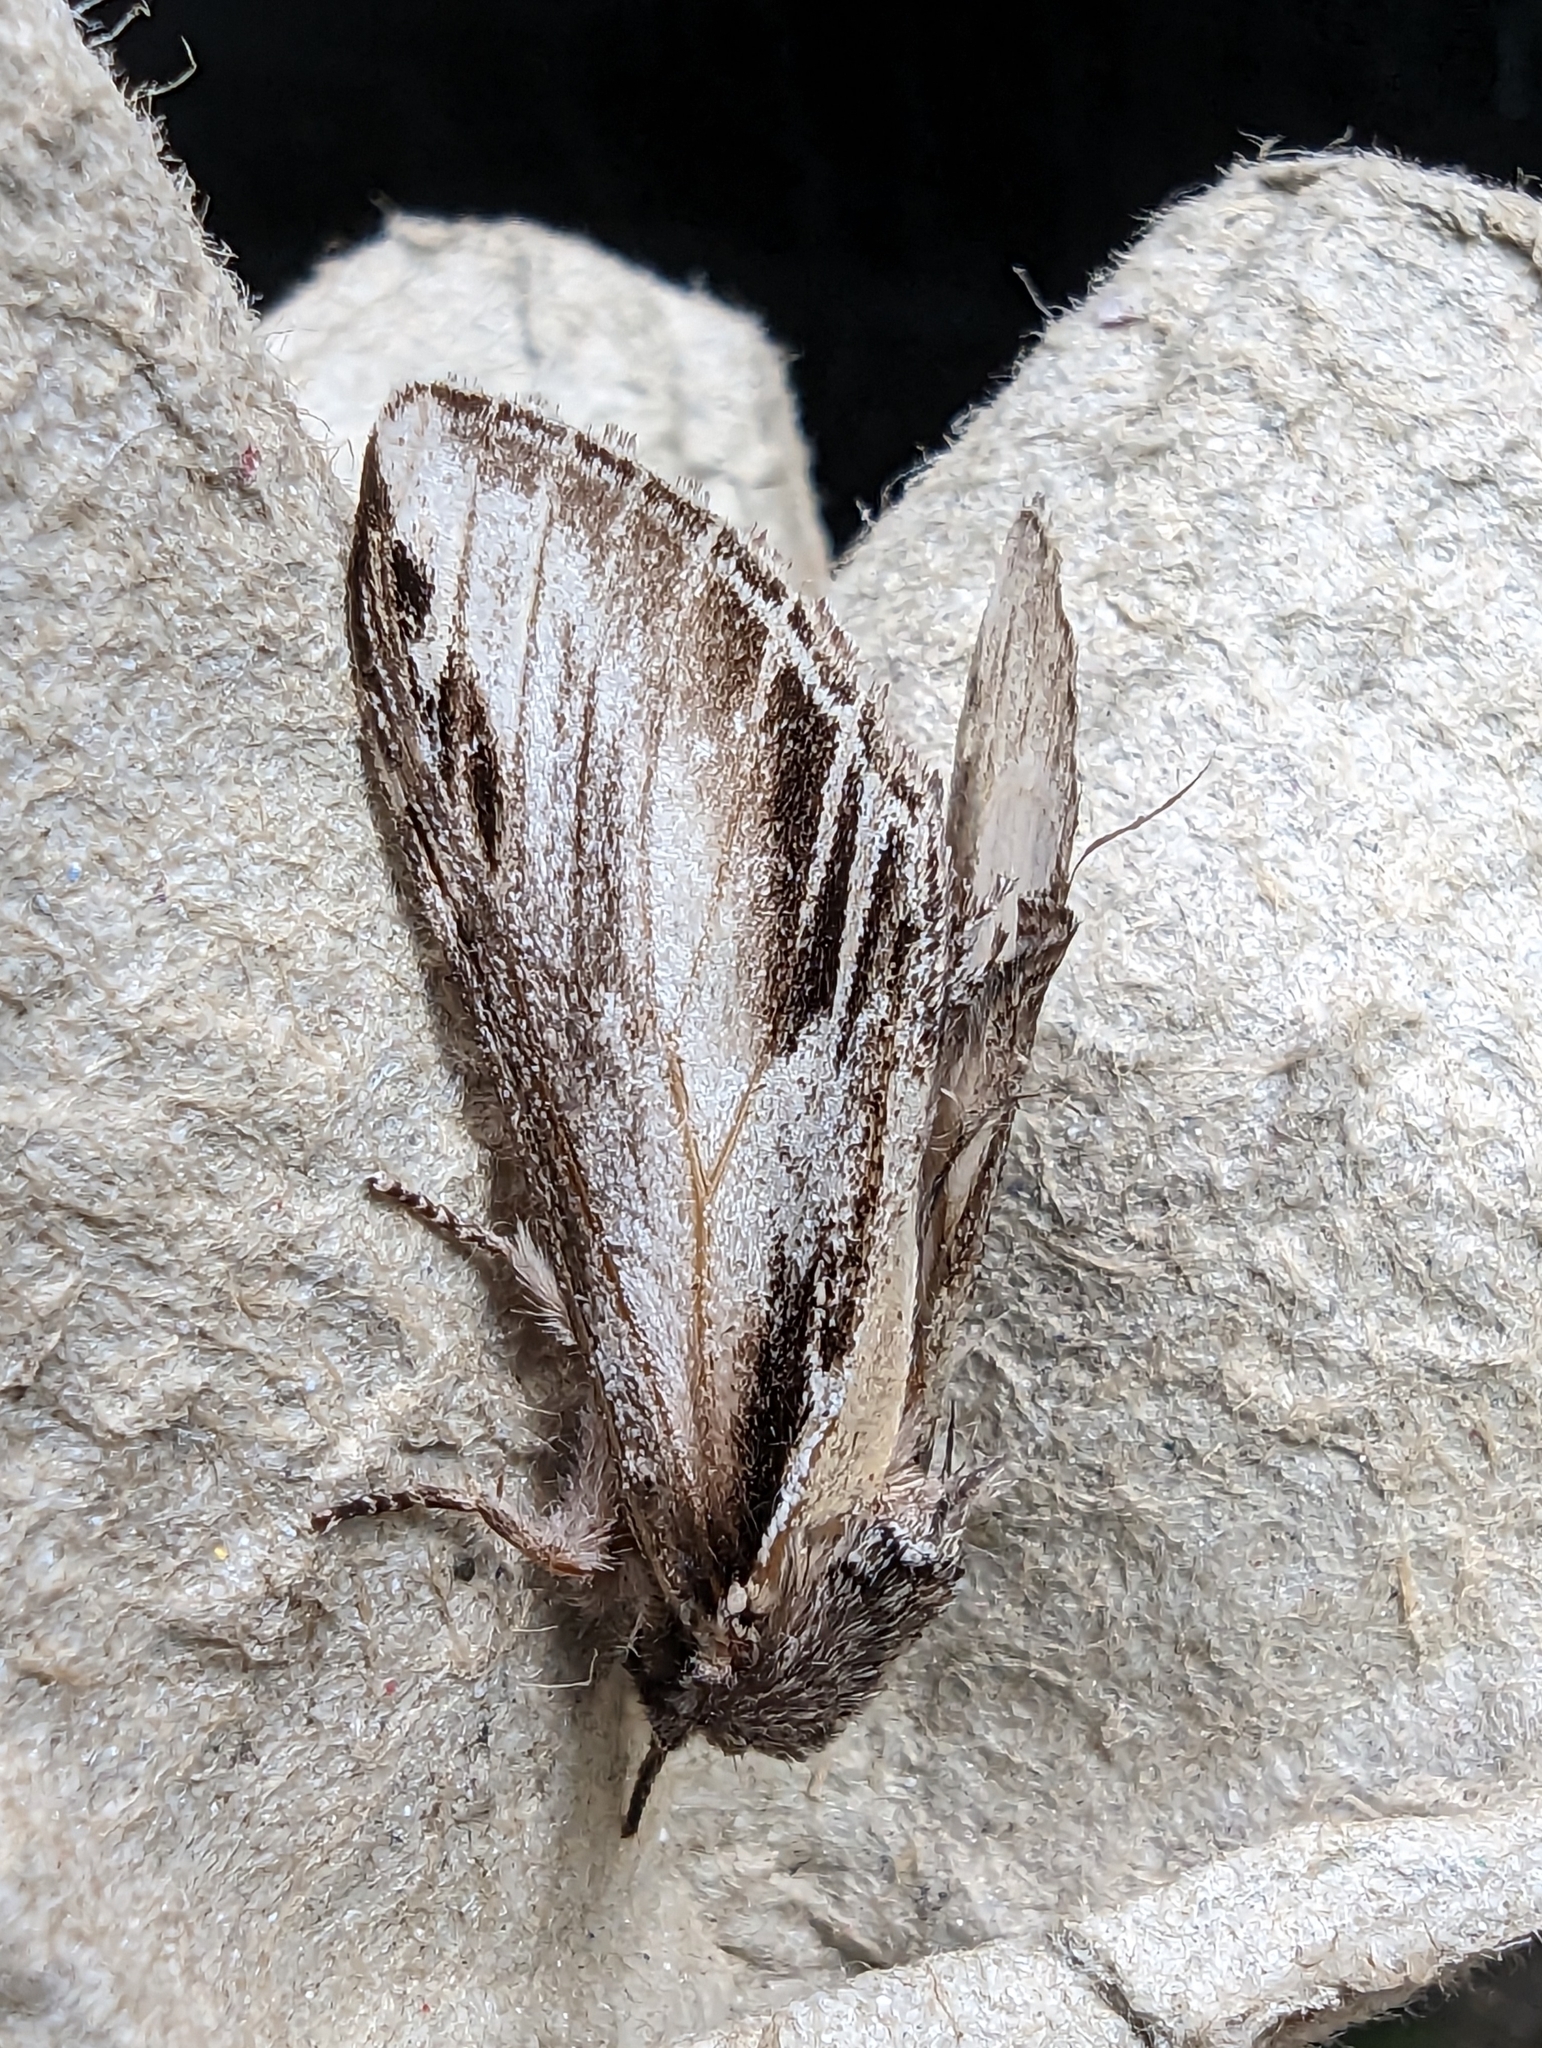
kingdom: Animalia
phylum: Arthropoda
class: Insecta
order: Lepidoptera
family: Notodontidae
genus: Pheosia
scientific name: Pheosia tremula
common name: Swallow prominent
